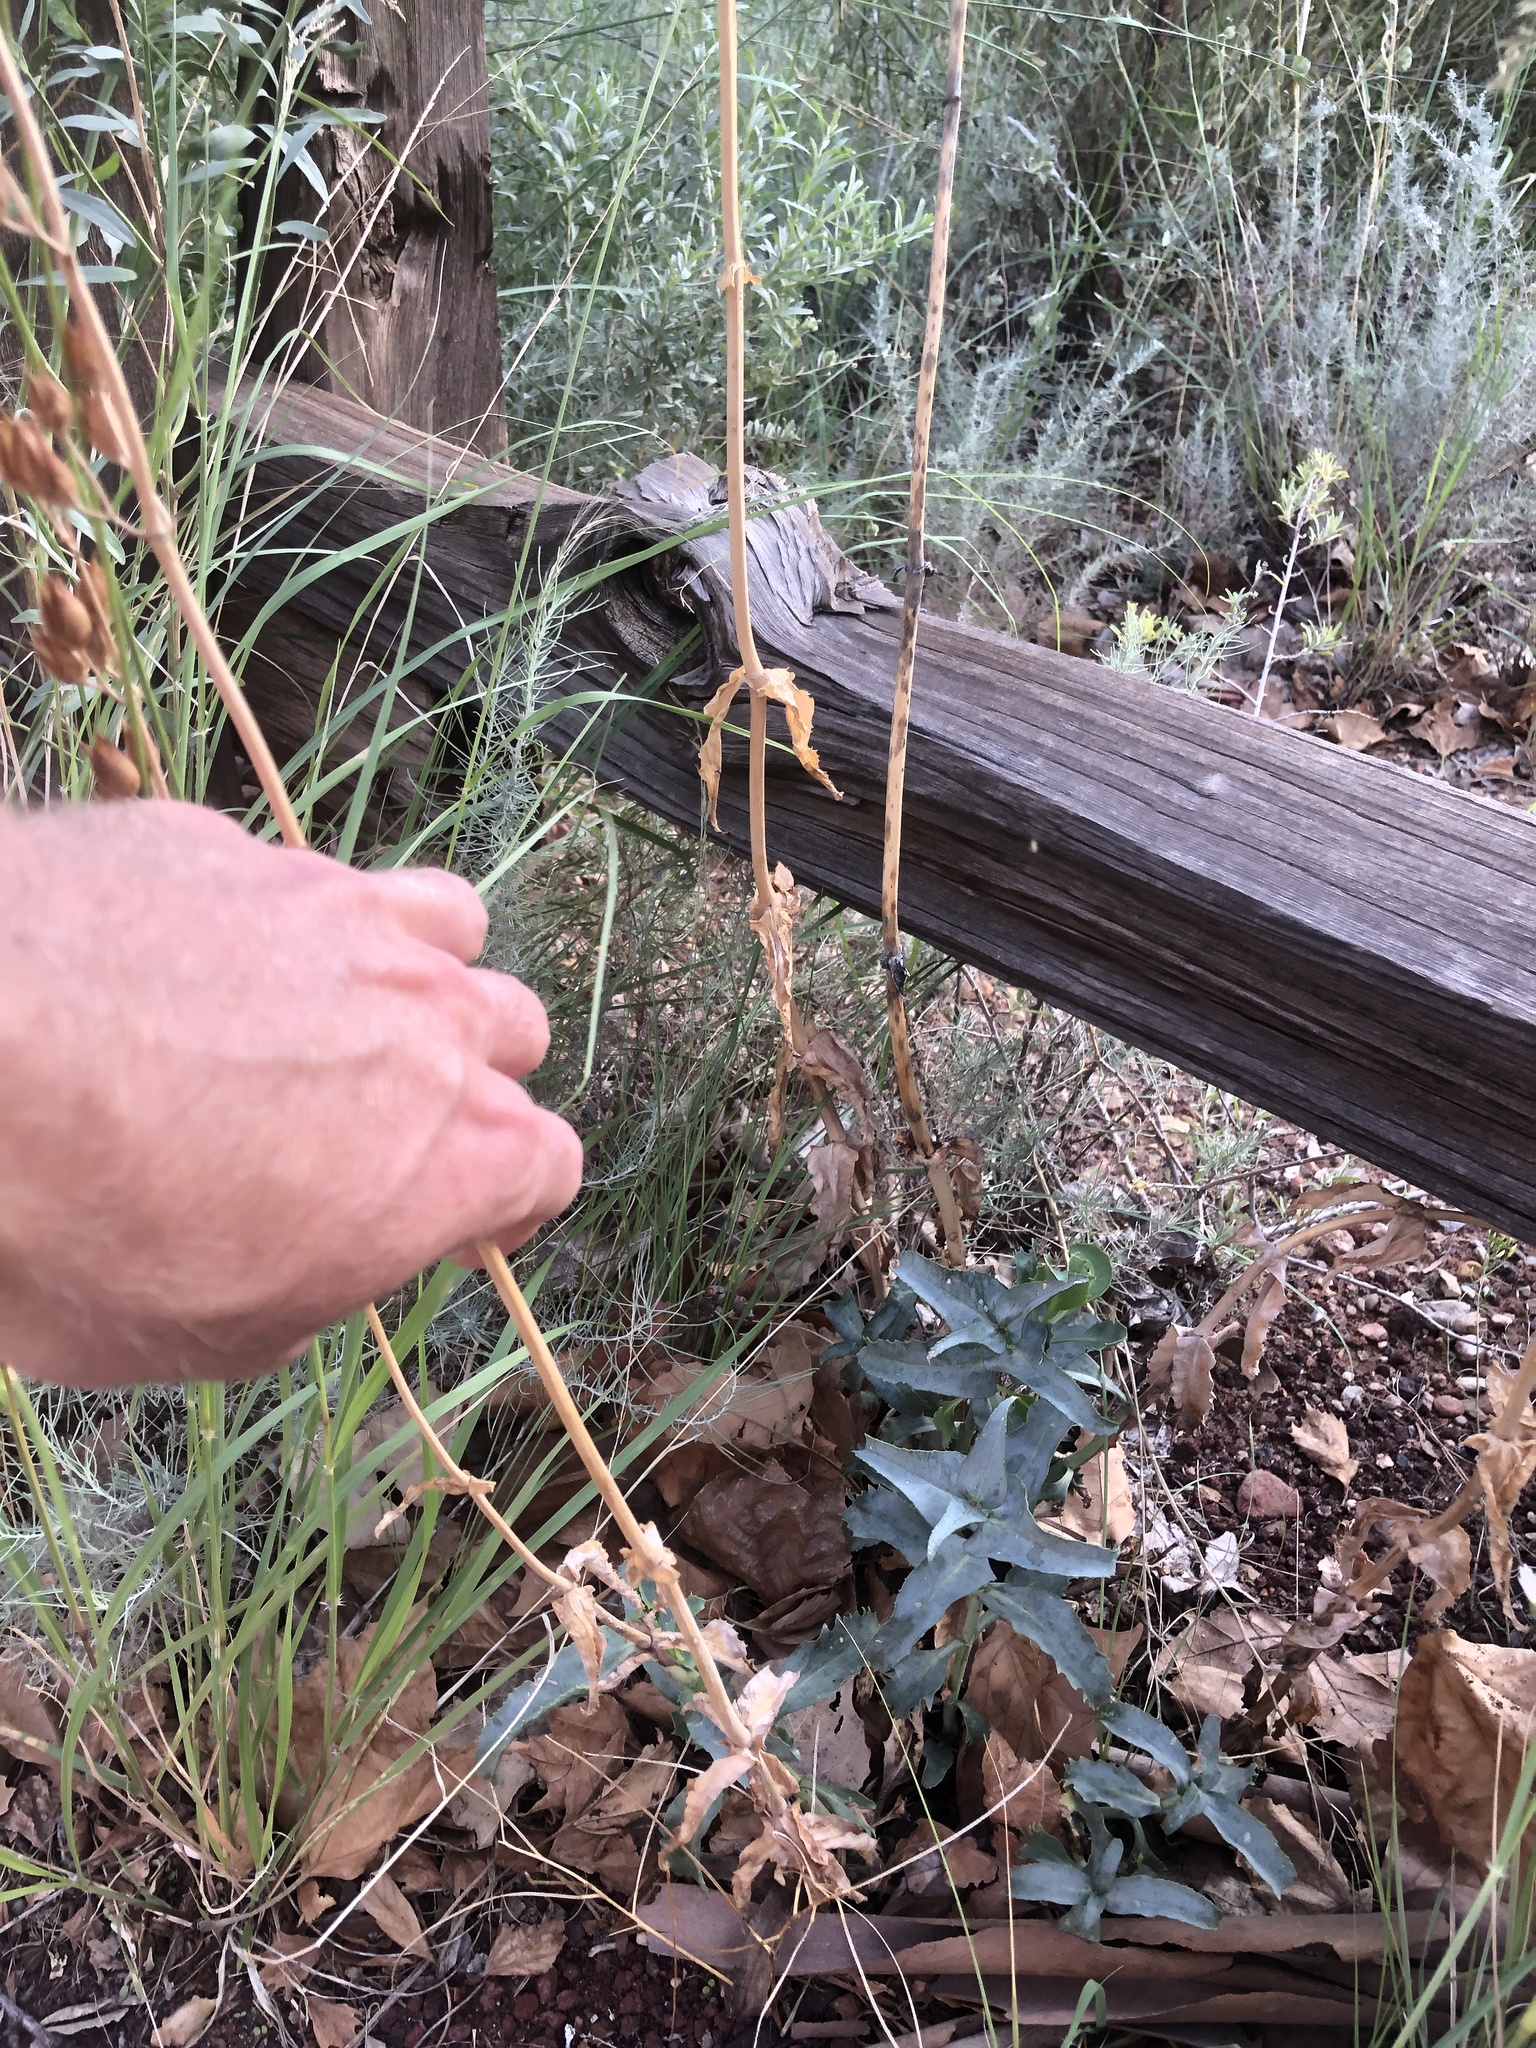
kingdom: Plantae
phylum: Tracheophyta
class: Magnoliopsida
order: Lamiales
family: Plantaginaceae
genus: Penstemon
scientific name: Penstemon palmeri
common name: Palmer penstemon
